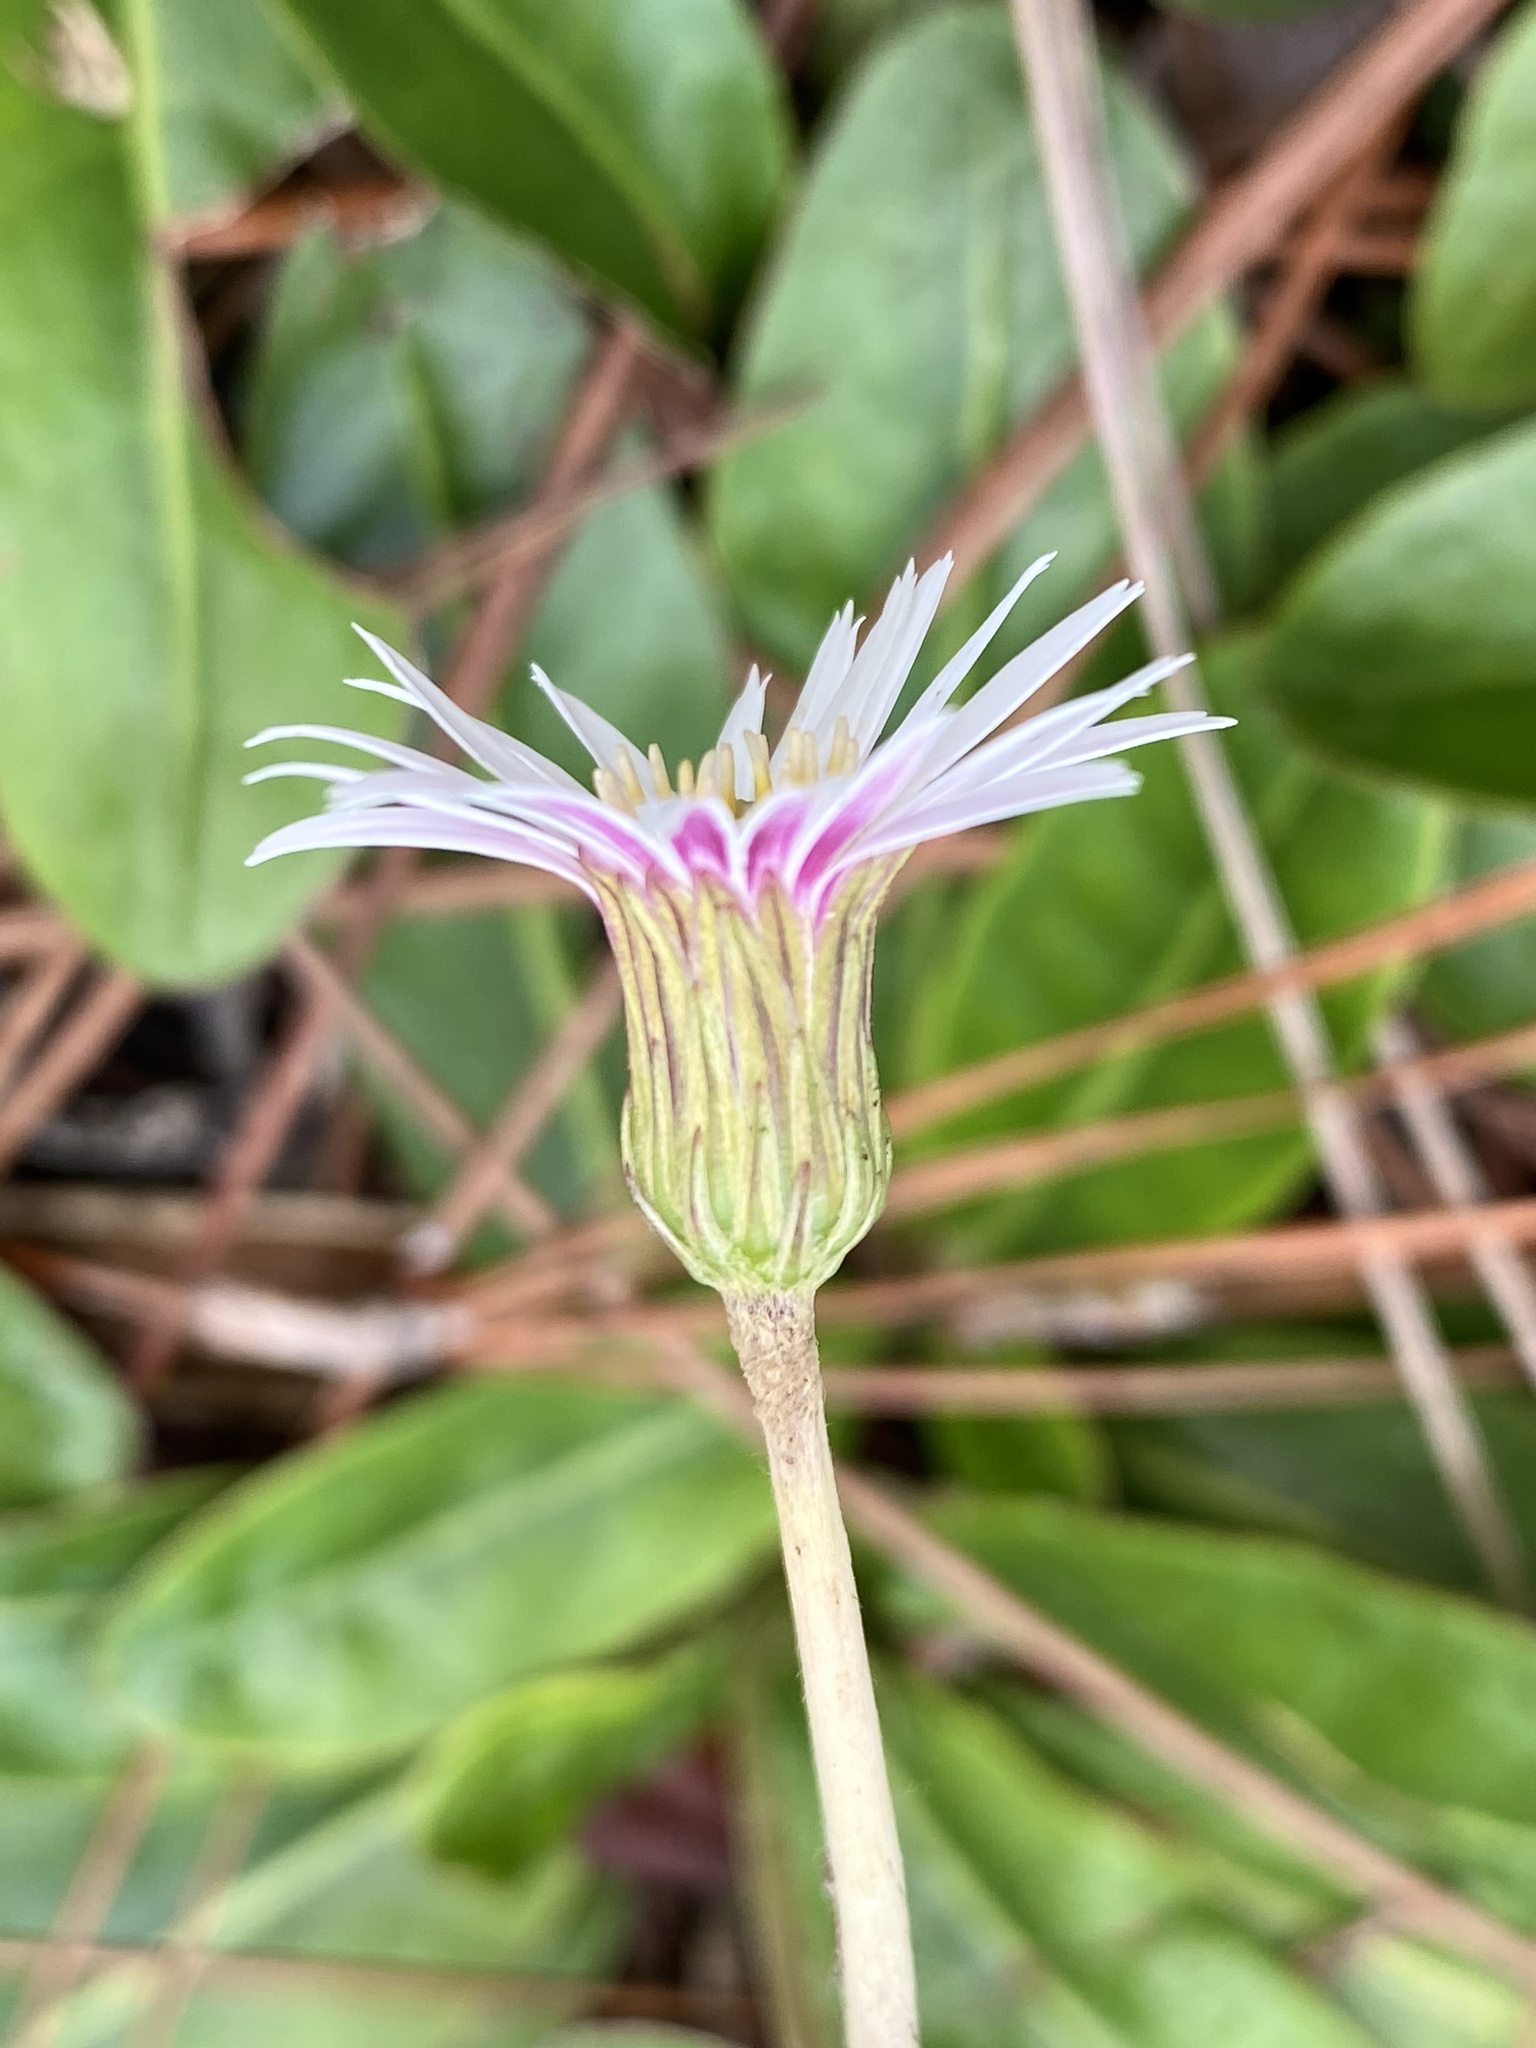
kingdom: Plantae
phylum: Tracheophyta
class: Magnoliopsida
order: Asterales
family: Asteraceae
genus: Chaptalia
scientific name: Chaptalia tomentosa
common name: Woolly sunbonnet
